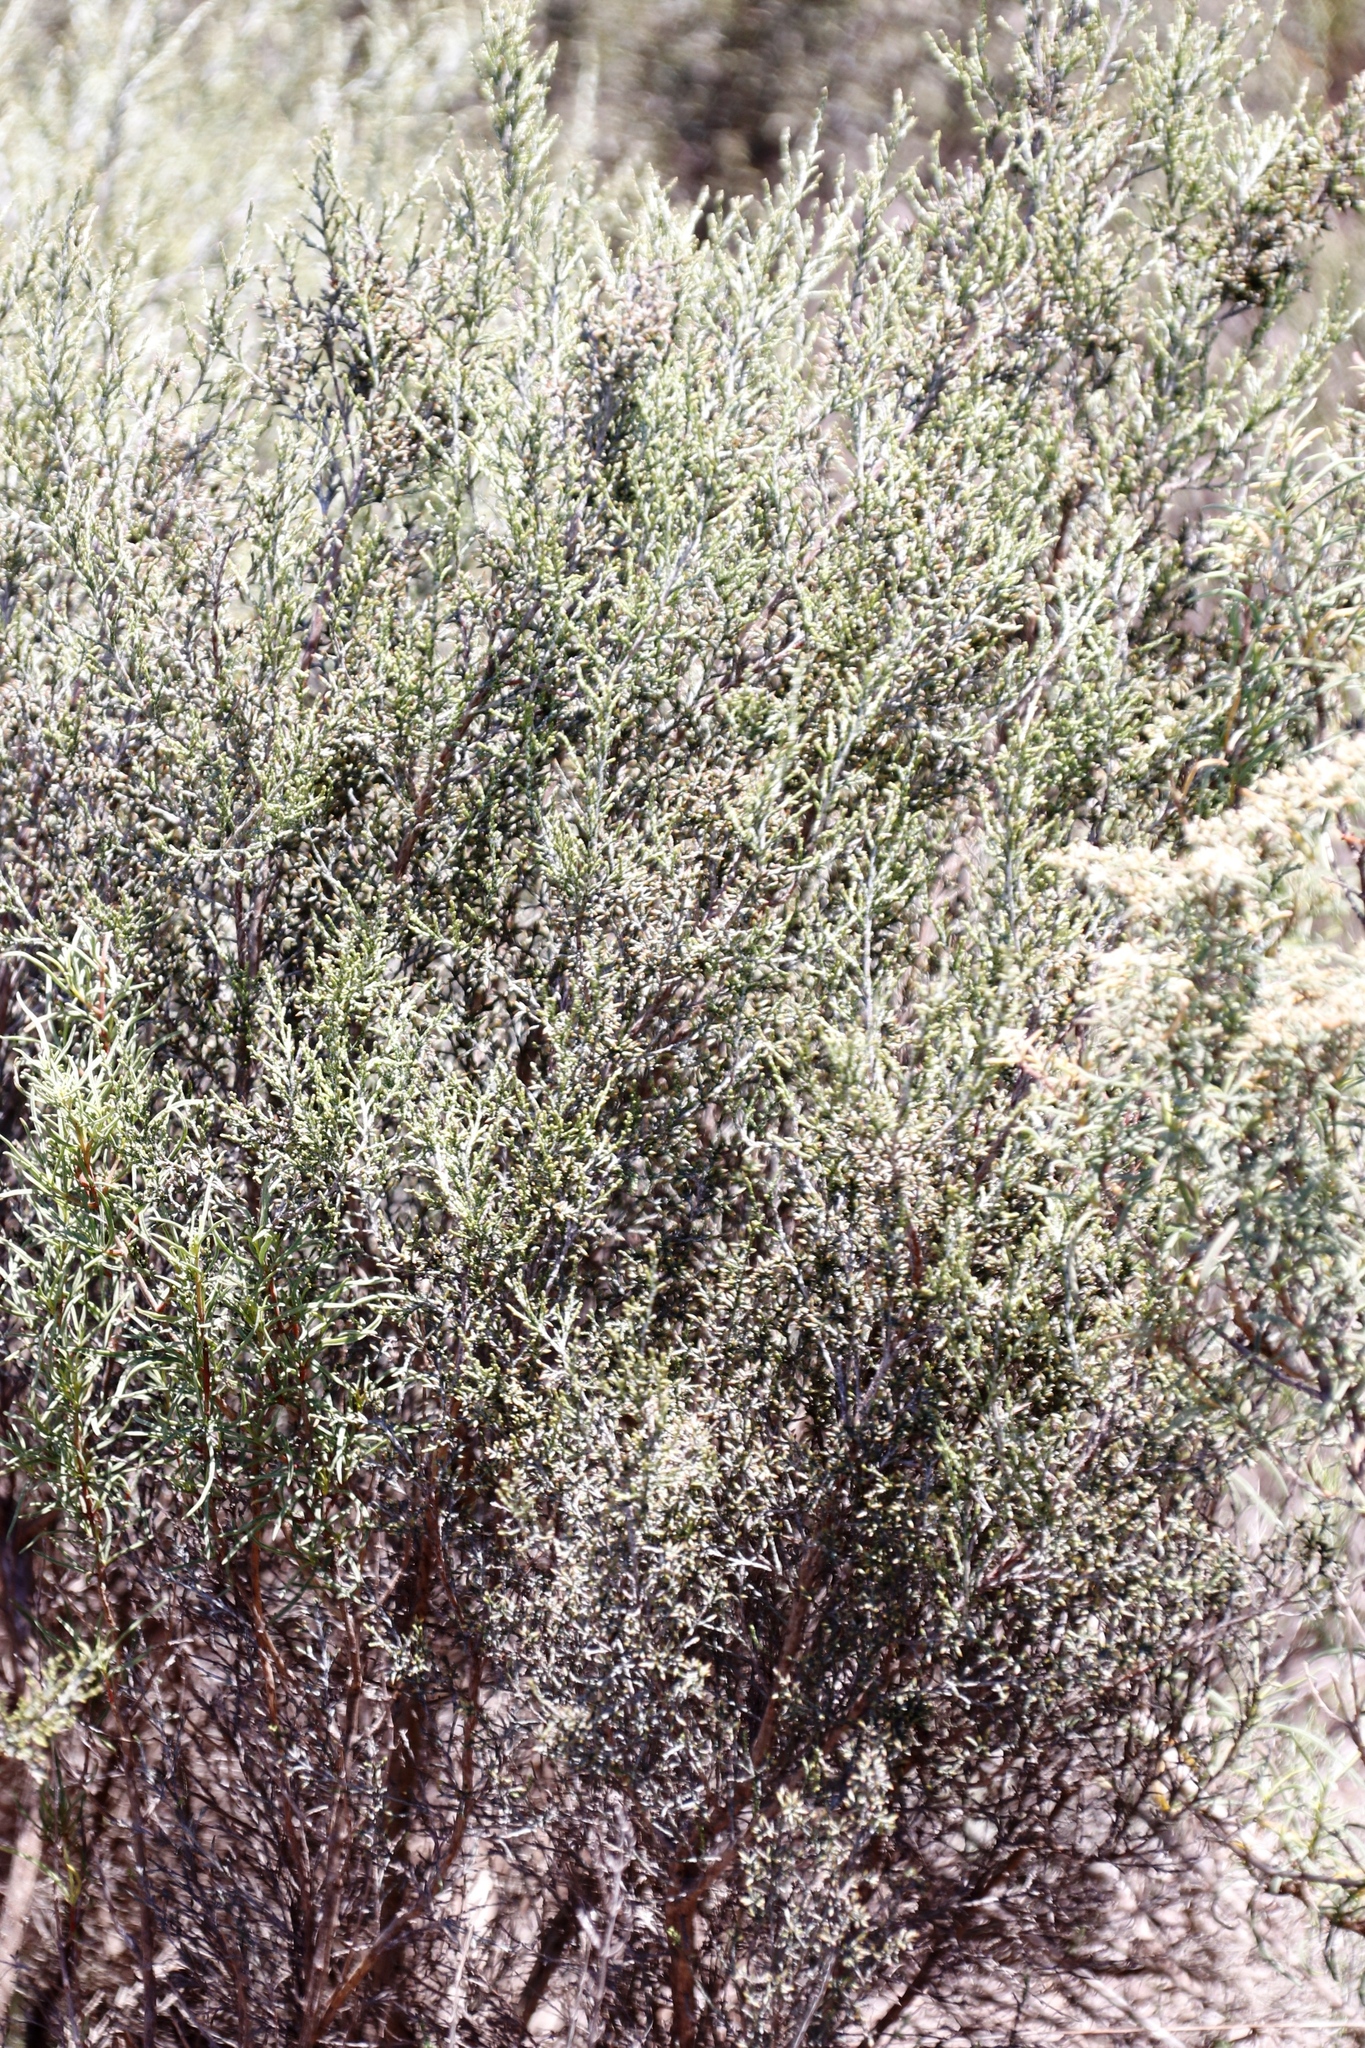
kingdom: Plantae
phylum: Tracheophyta
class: Magnoliopsida
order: Asterales
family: Asteraceae
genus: Dicerothamnus
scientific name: Dicerothamnus rhinocerotis
